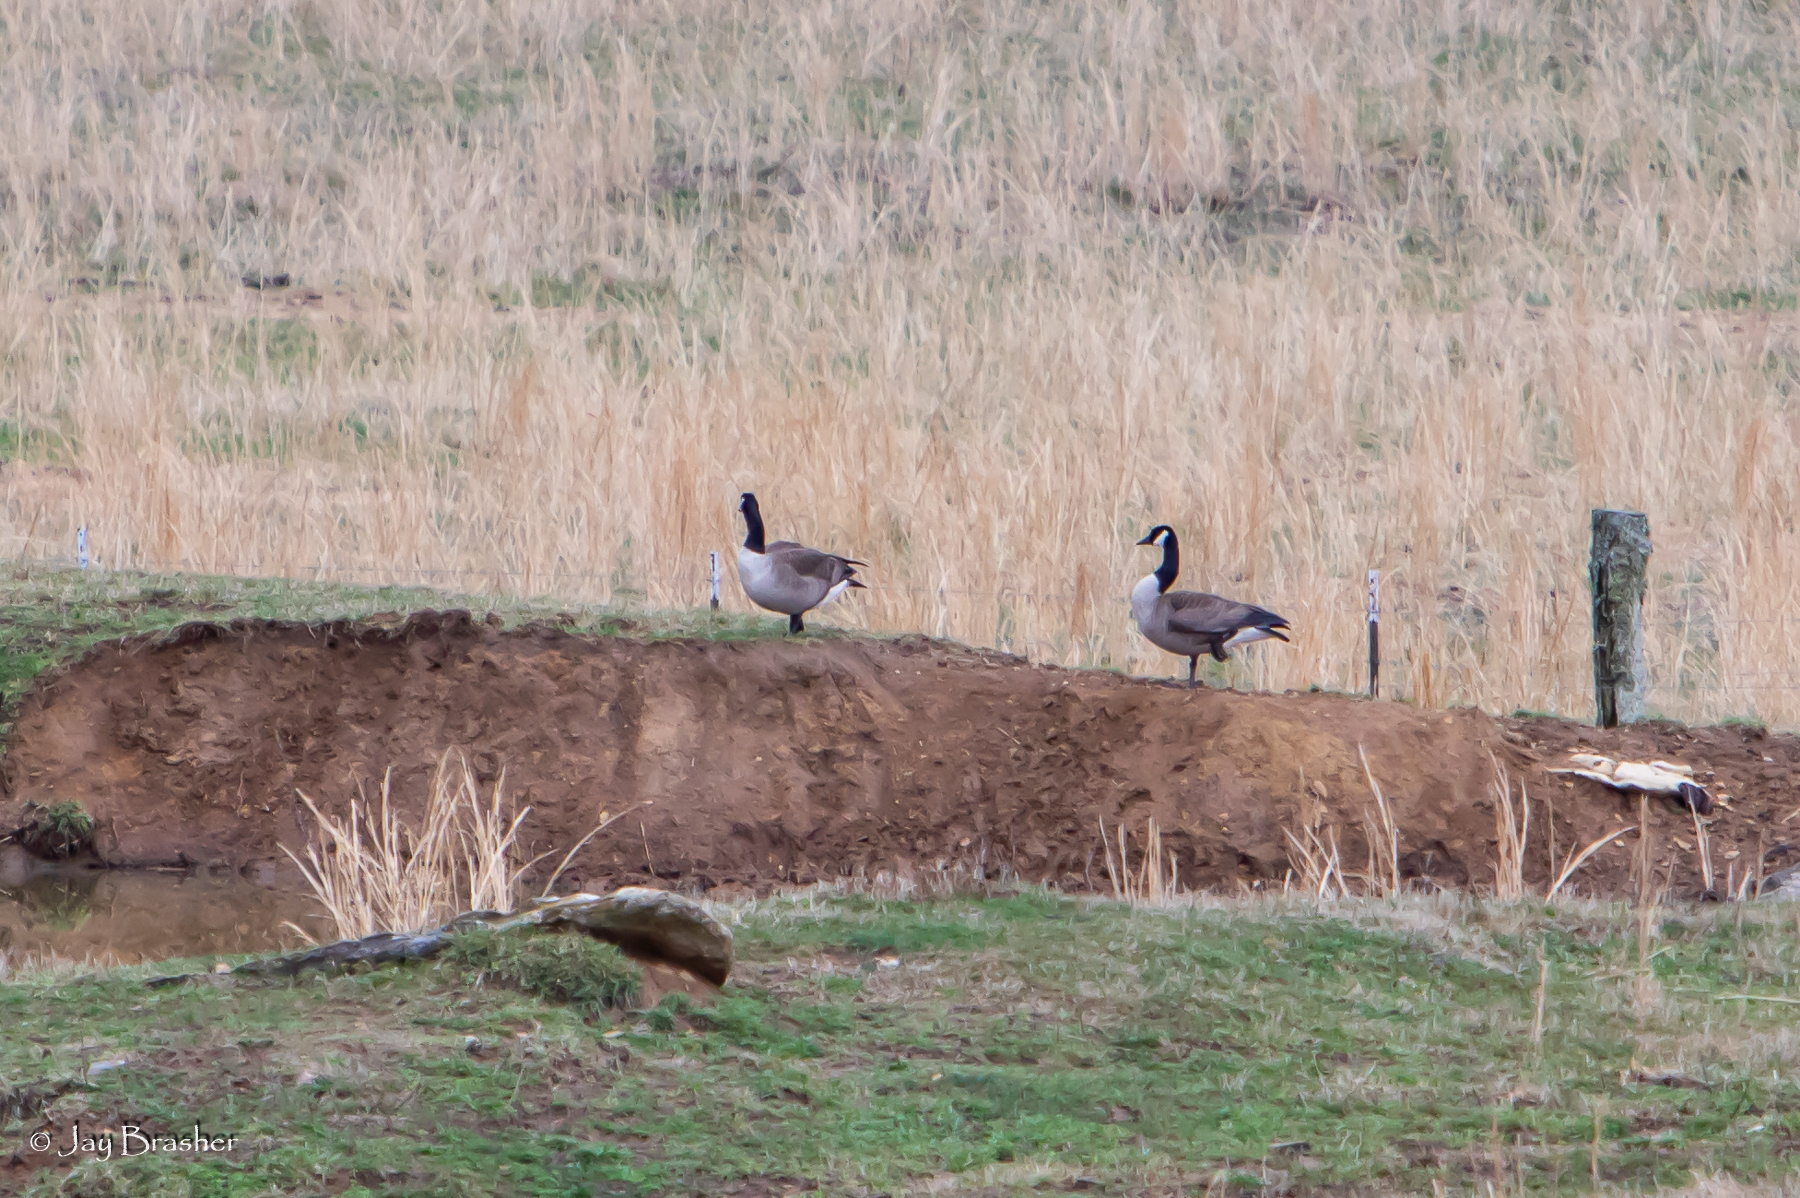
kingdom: Animalia
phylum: Chordata
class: Aves
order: Anseriformes
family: Anatidae
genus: Branta
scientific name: Branta canadensis
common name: Canada goose
